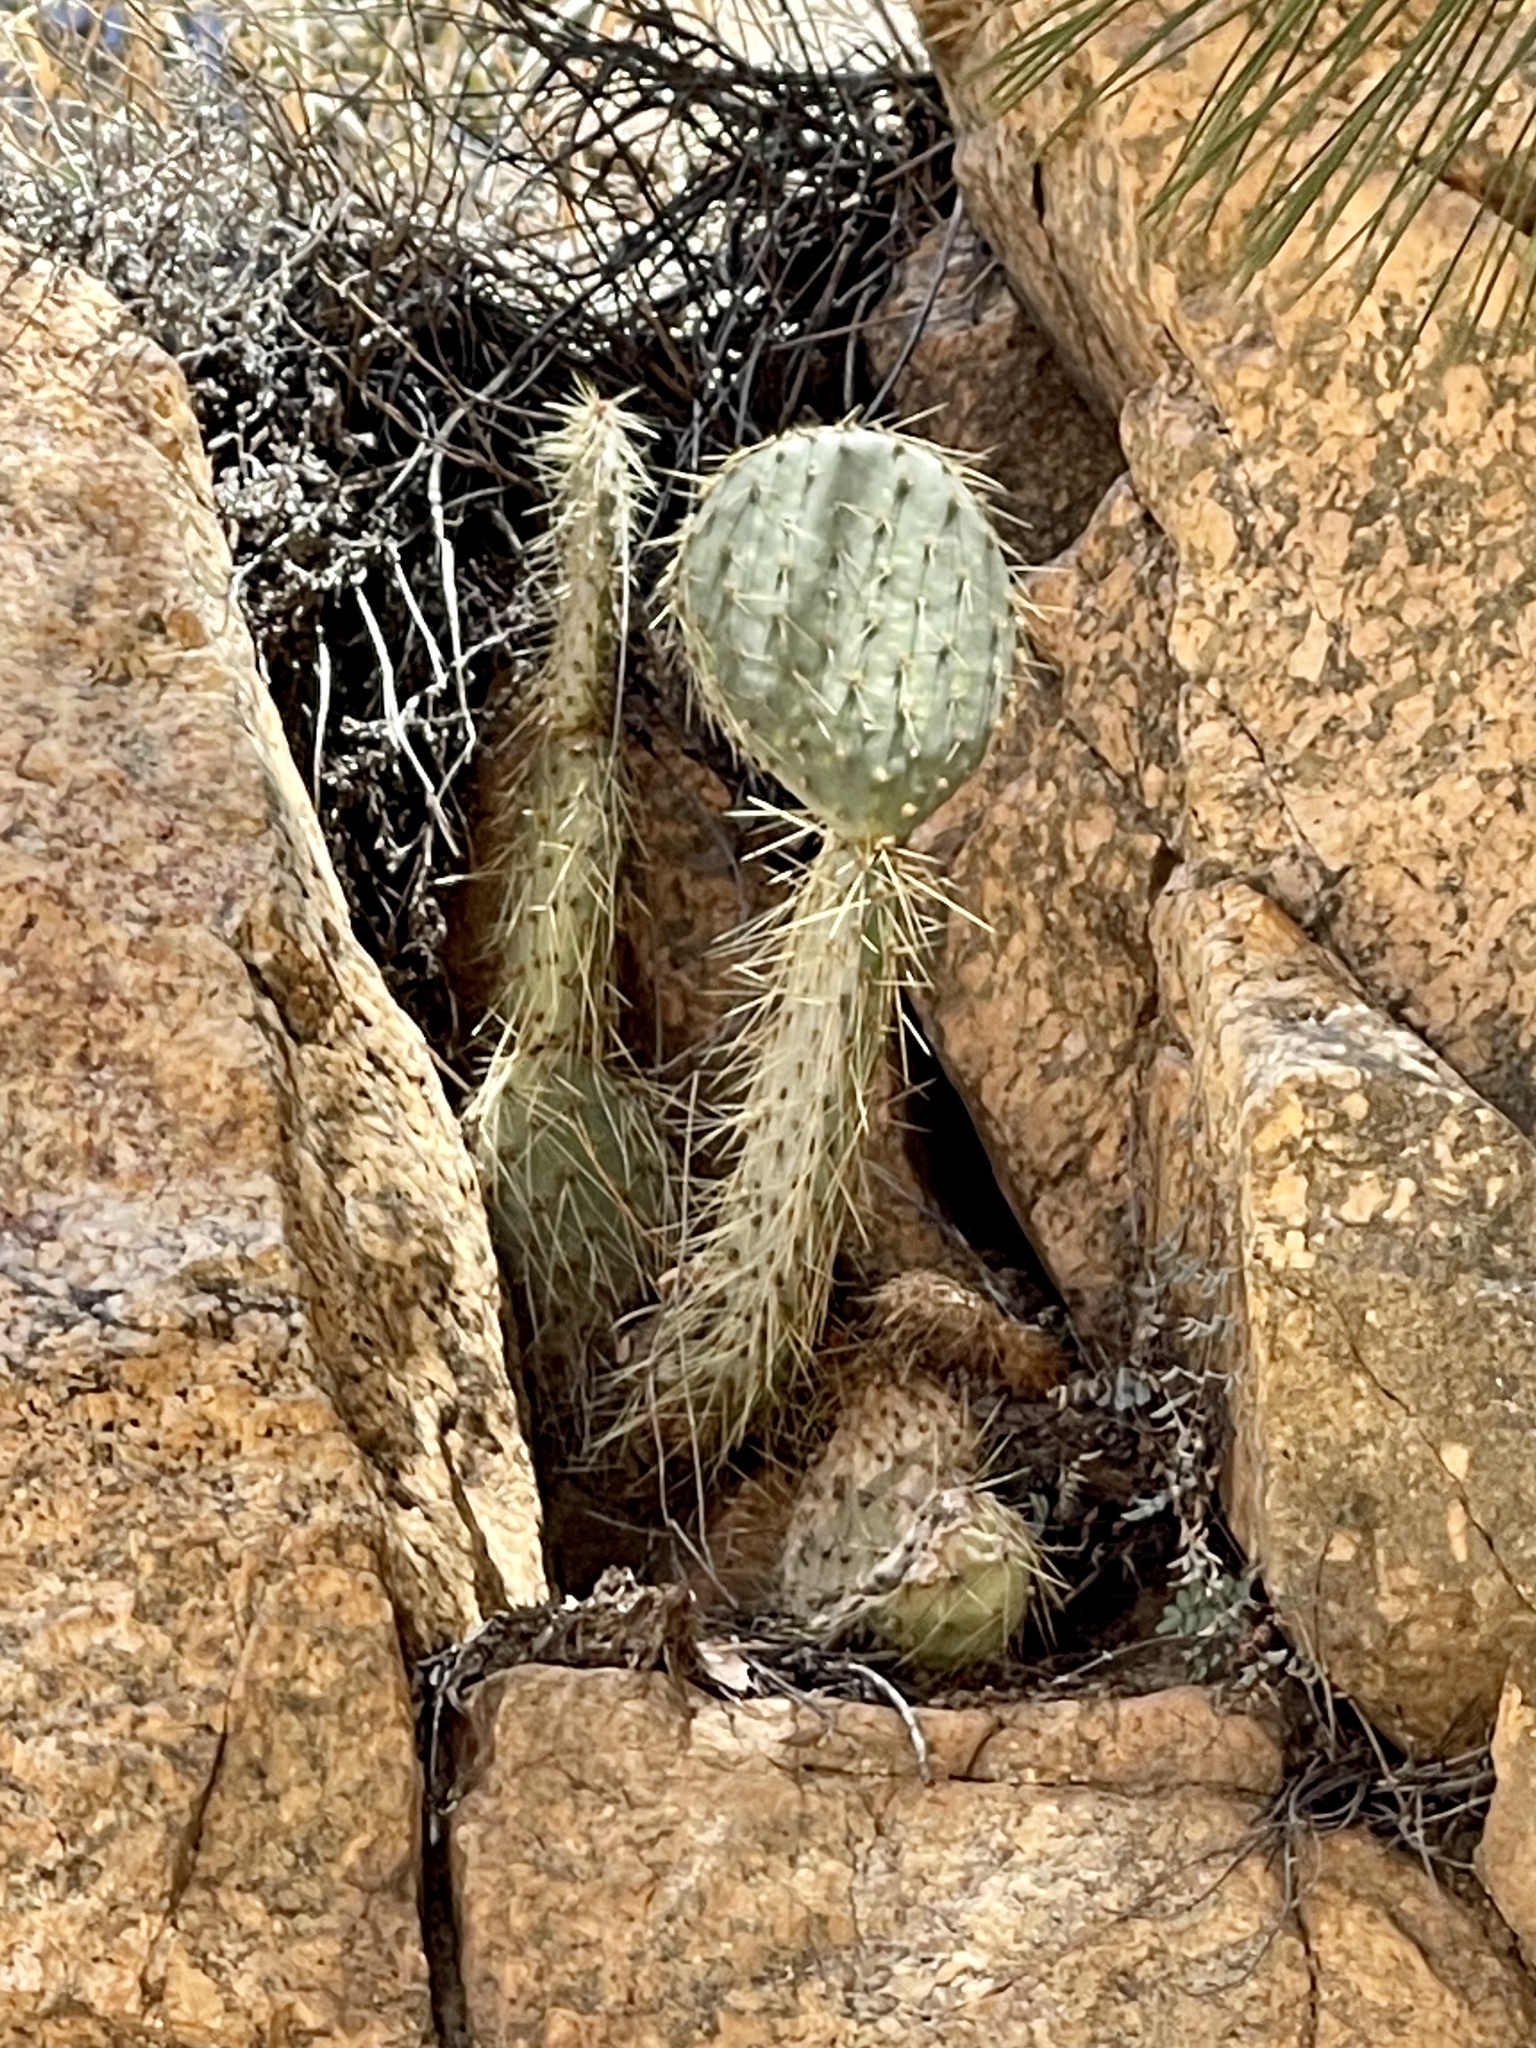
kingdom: Plantae
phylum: Tracheophyta
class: Magnoliopsida
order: Caryophyllales
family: Cactaceae
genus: Opuntia
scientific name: Opuntia chlorotica
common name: Dollar-joint prickly-pear
